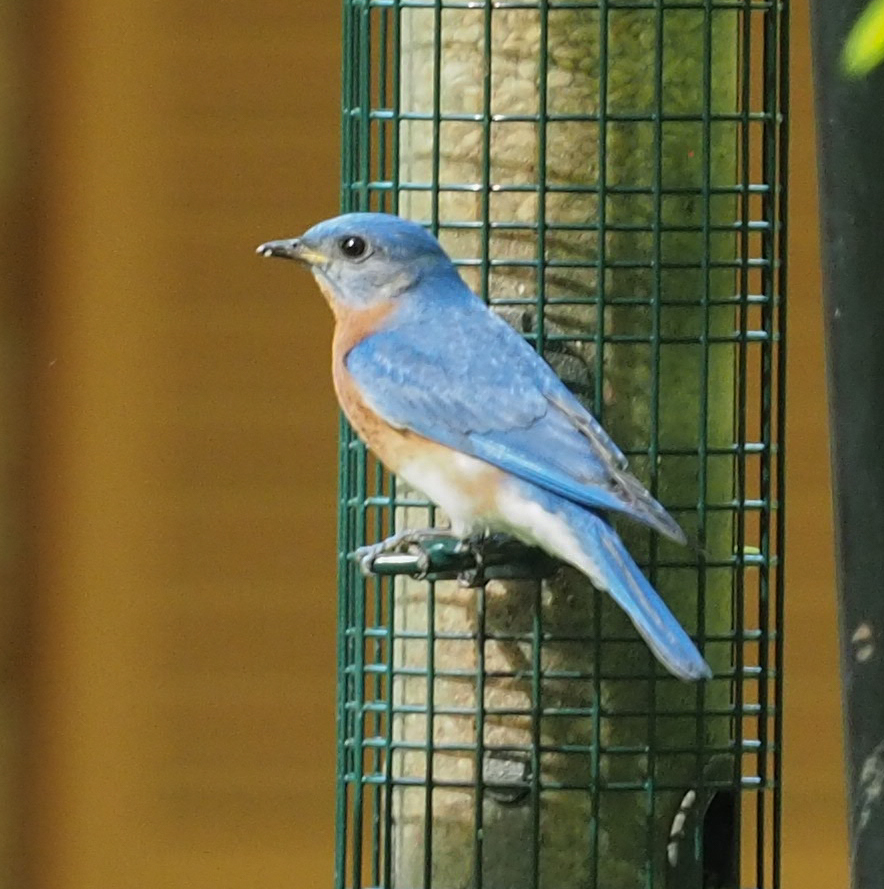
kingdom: Animalia
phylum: Chordata
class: Aves
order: Passeriformes
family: Turdidae
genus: Sialia
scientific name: Sialia sialis
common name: Eastern bluebird
